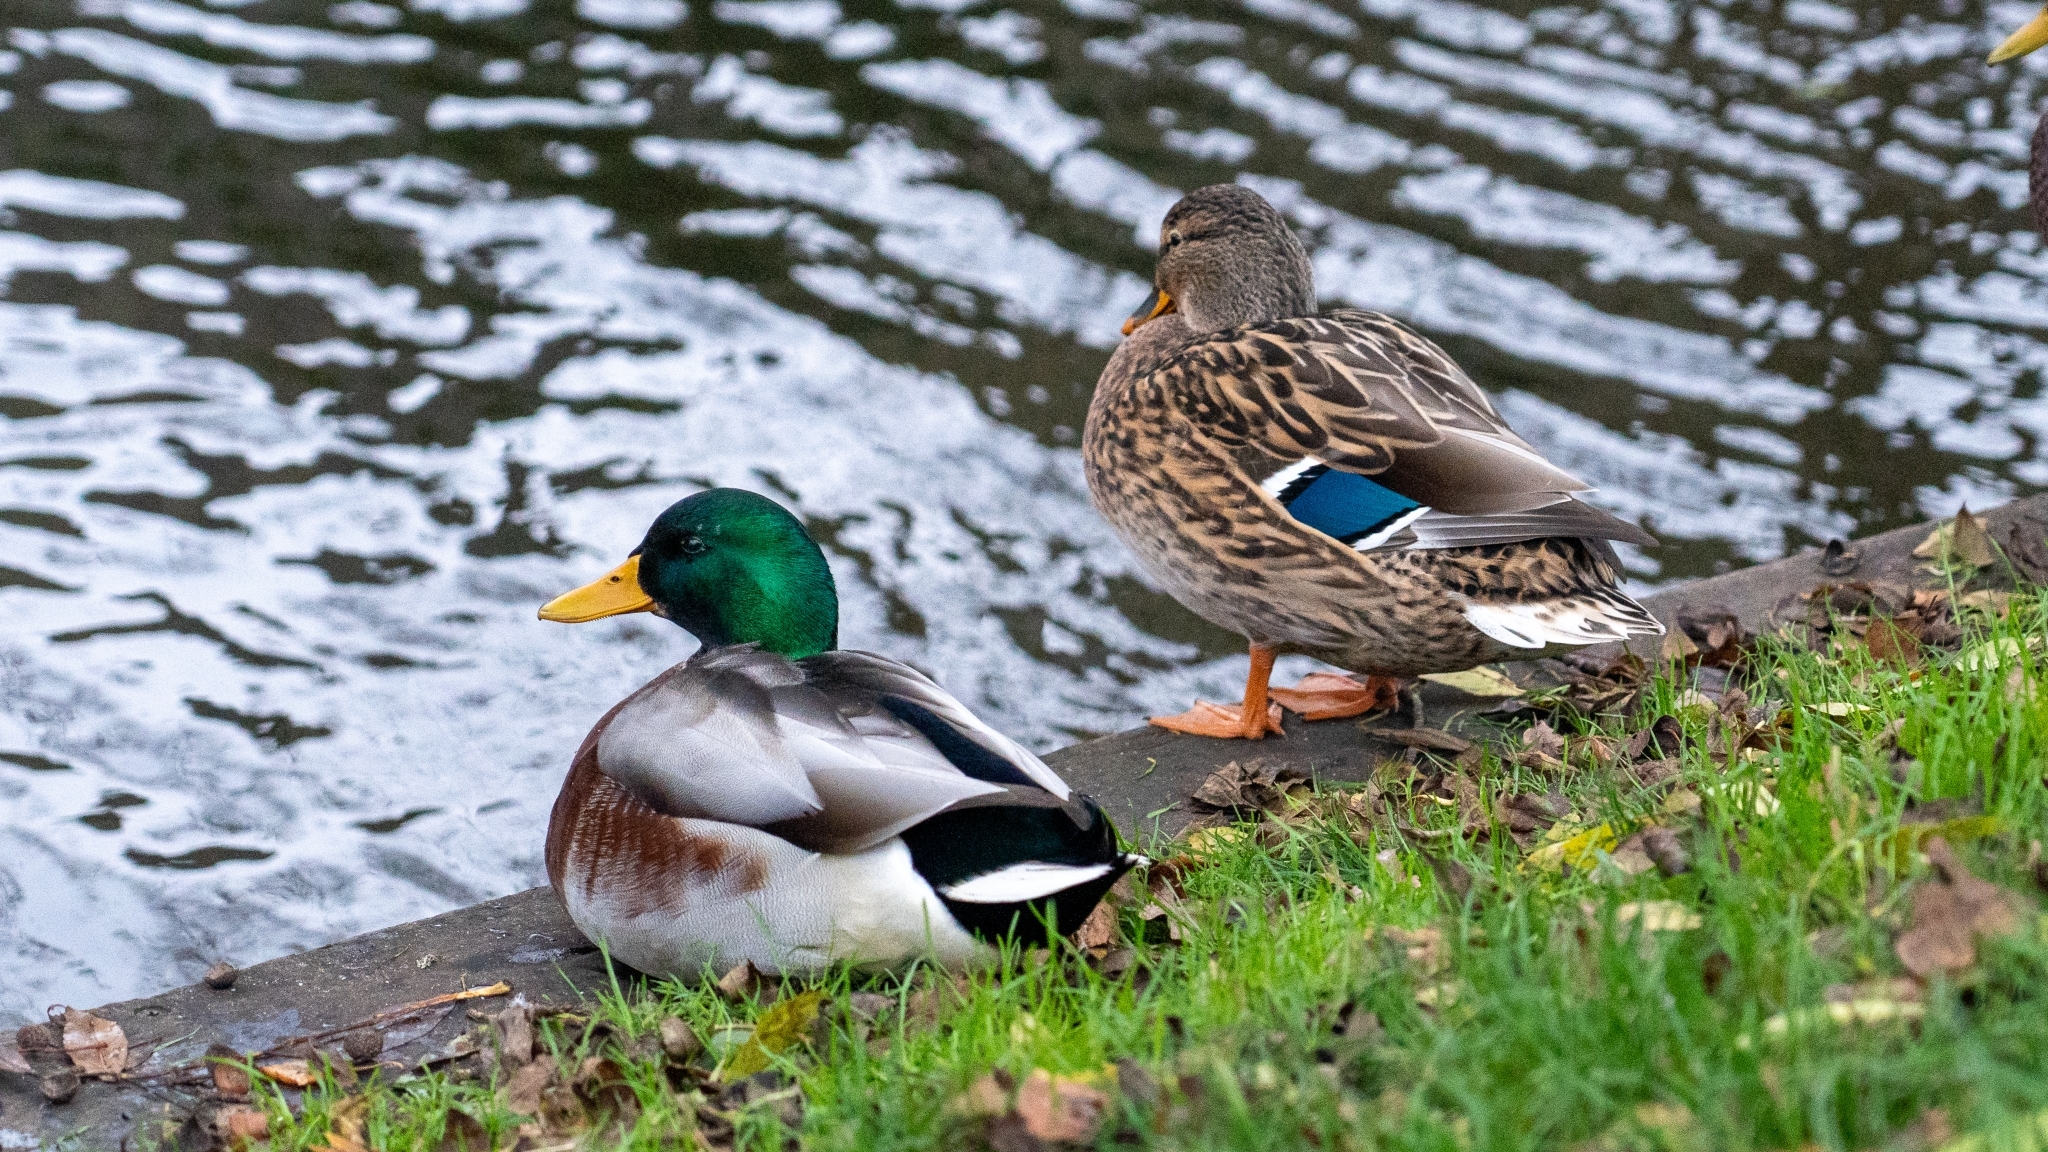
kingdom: Animalia
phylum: Chordata
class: Aves
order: Anseriformes
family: Anatidae
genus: Anas
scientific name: Anas platyrhynchos
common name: Mallard
